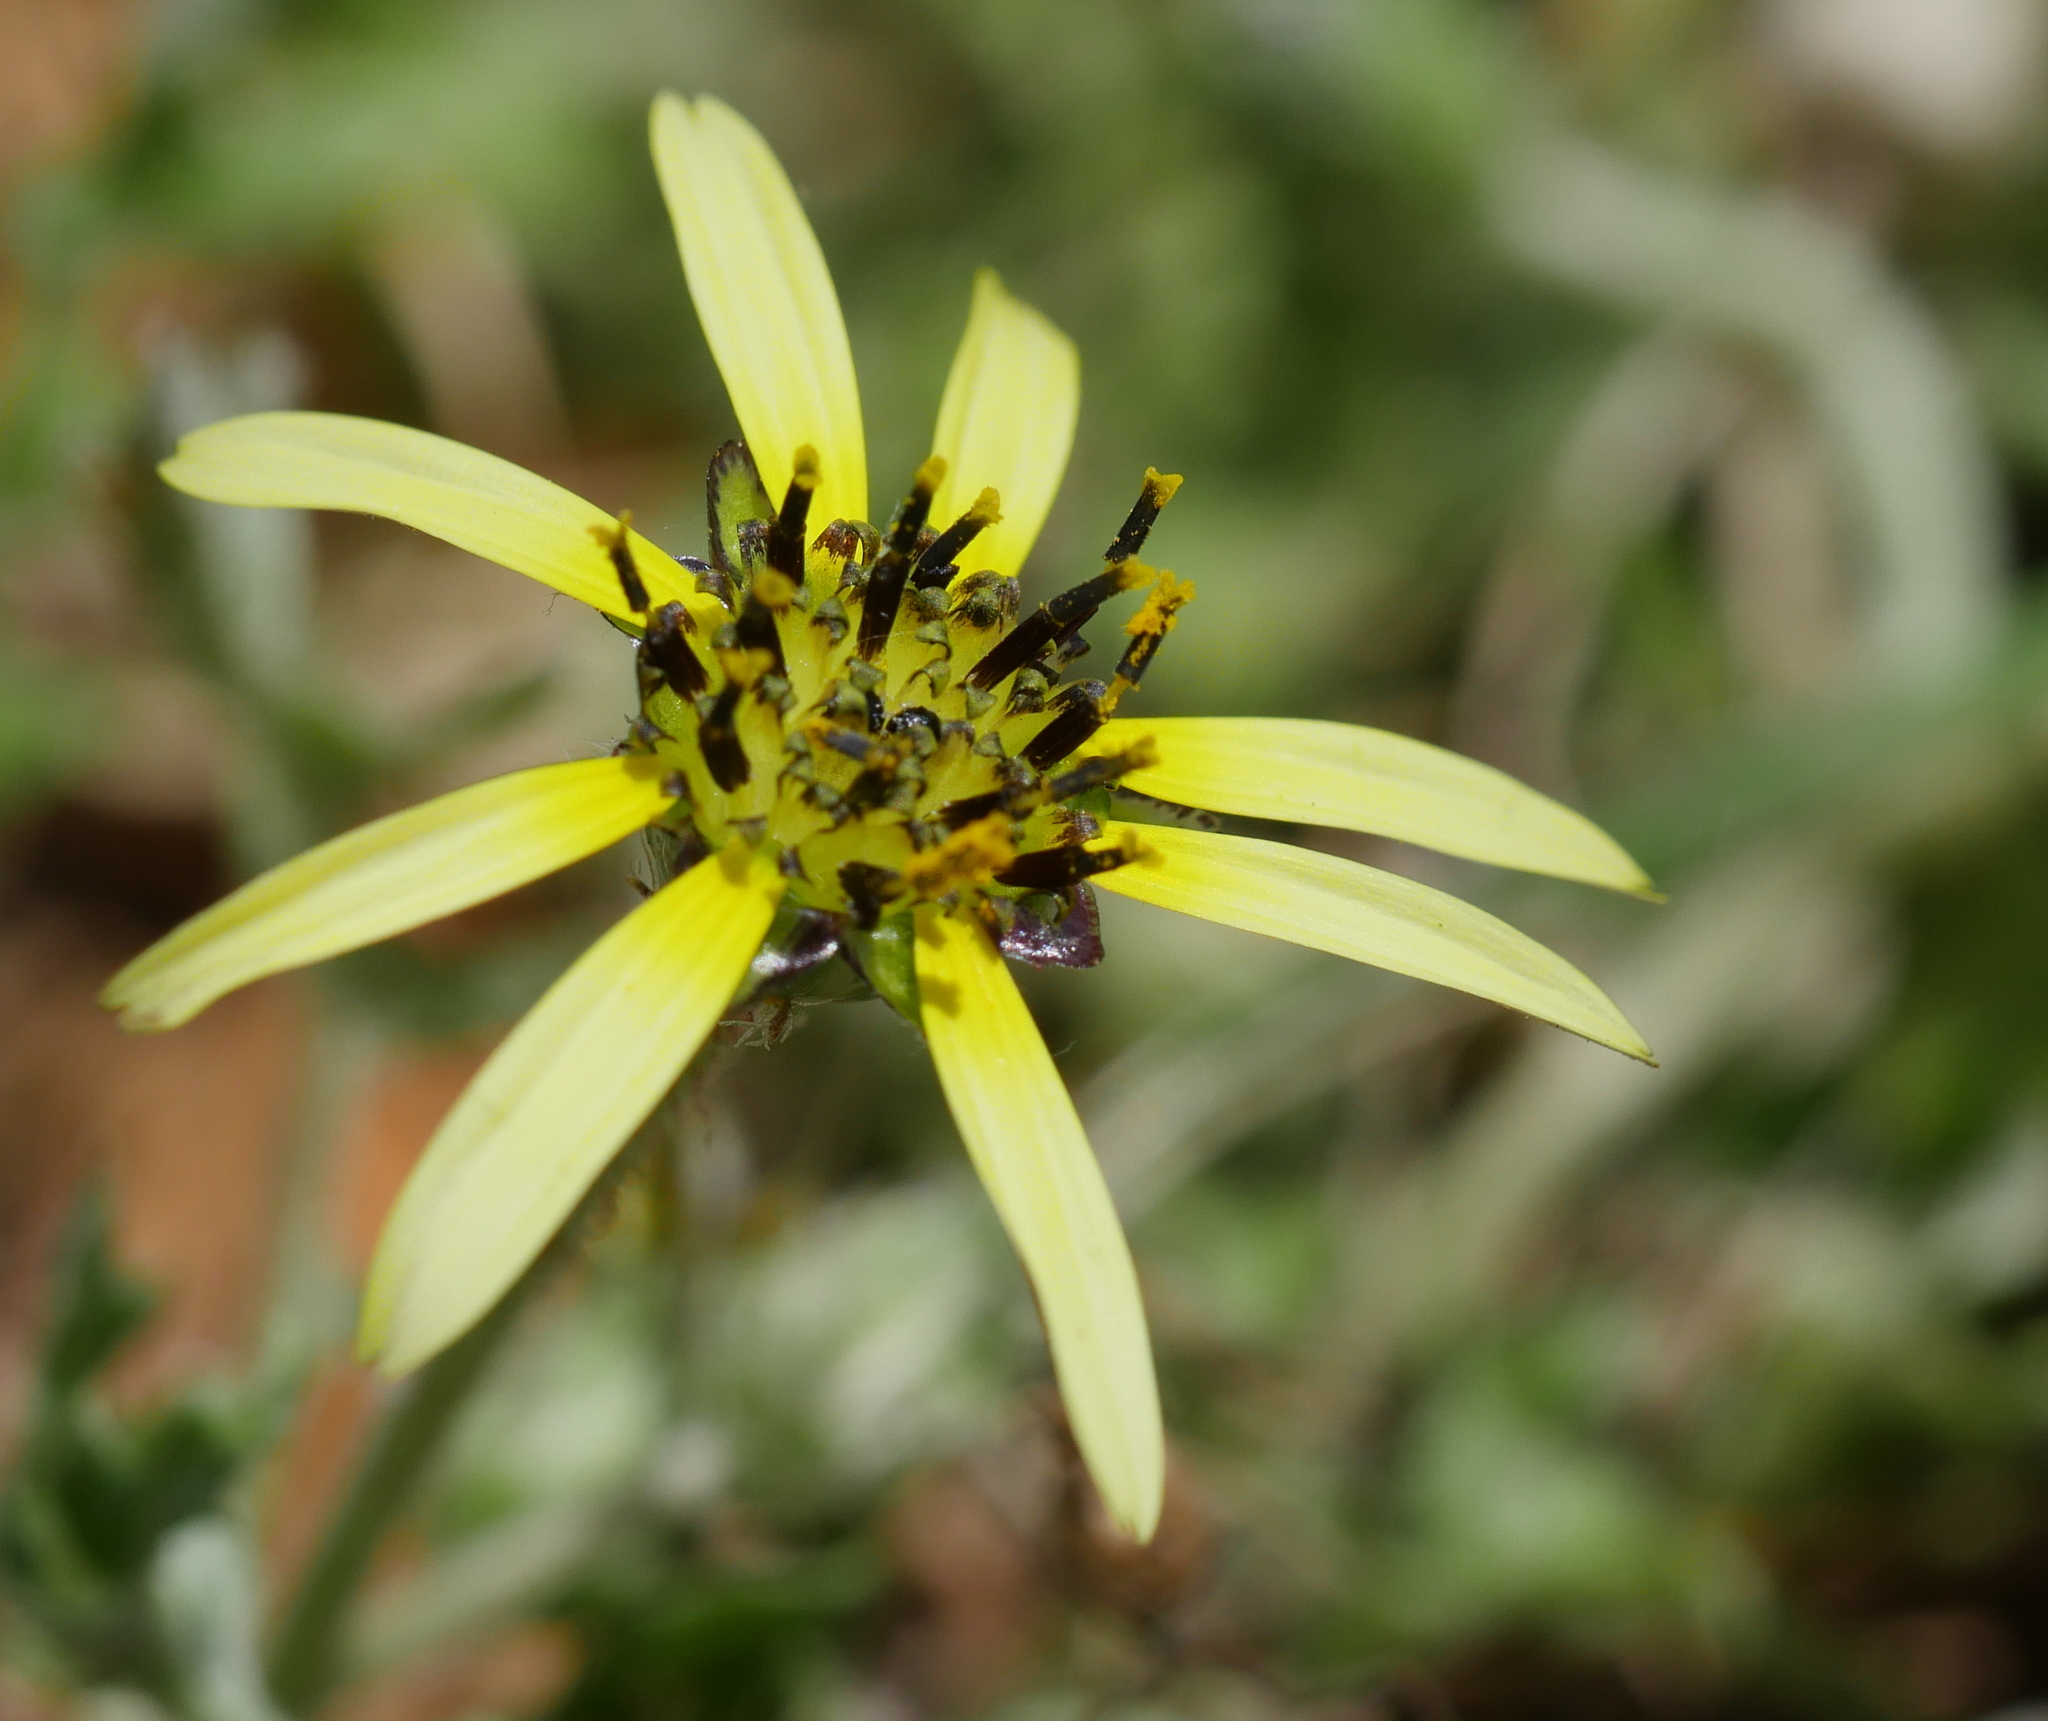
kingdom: Plantae
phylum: Tracheophyta
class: Magnoliopsida
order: Asterales
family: Asteraceae
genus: Arctotheca
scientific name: Arctotheca calendula
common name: Capeweed
